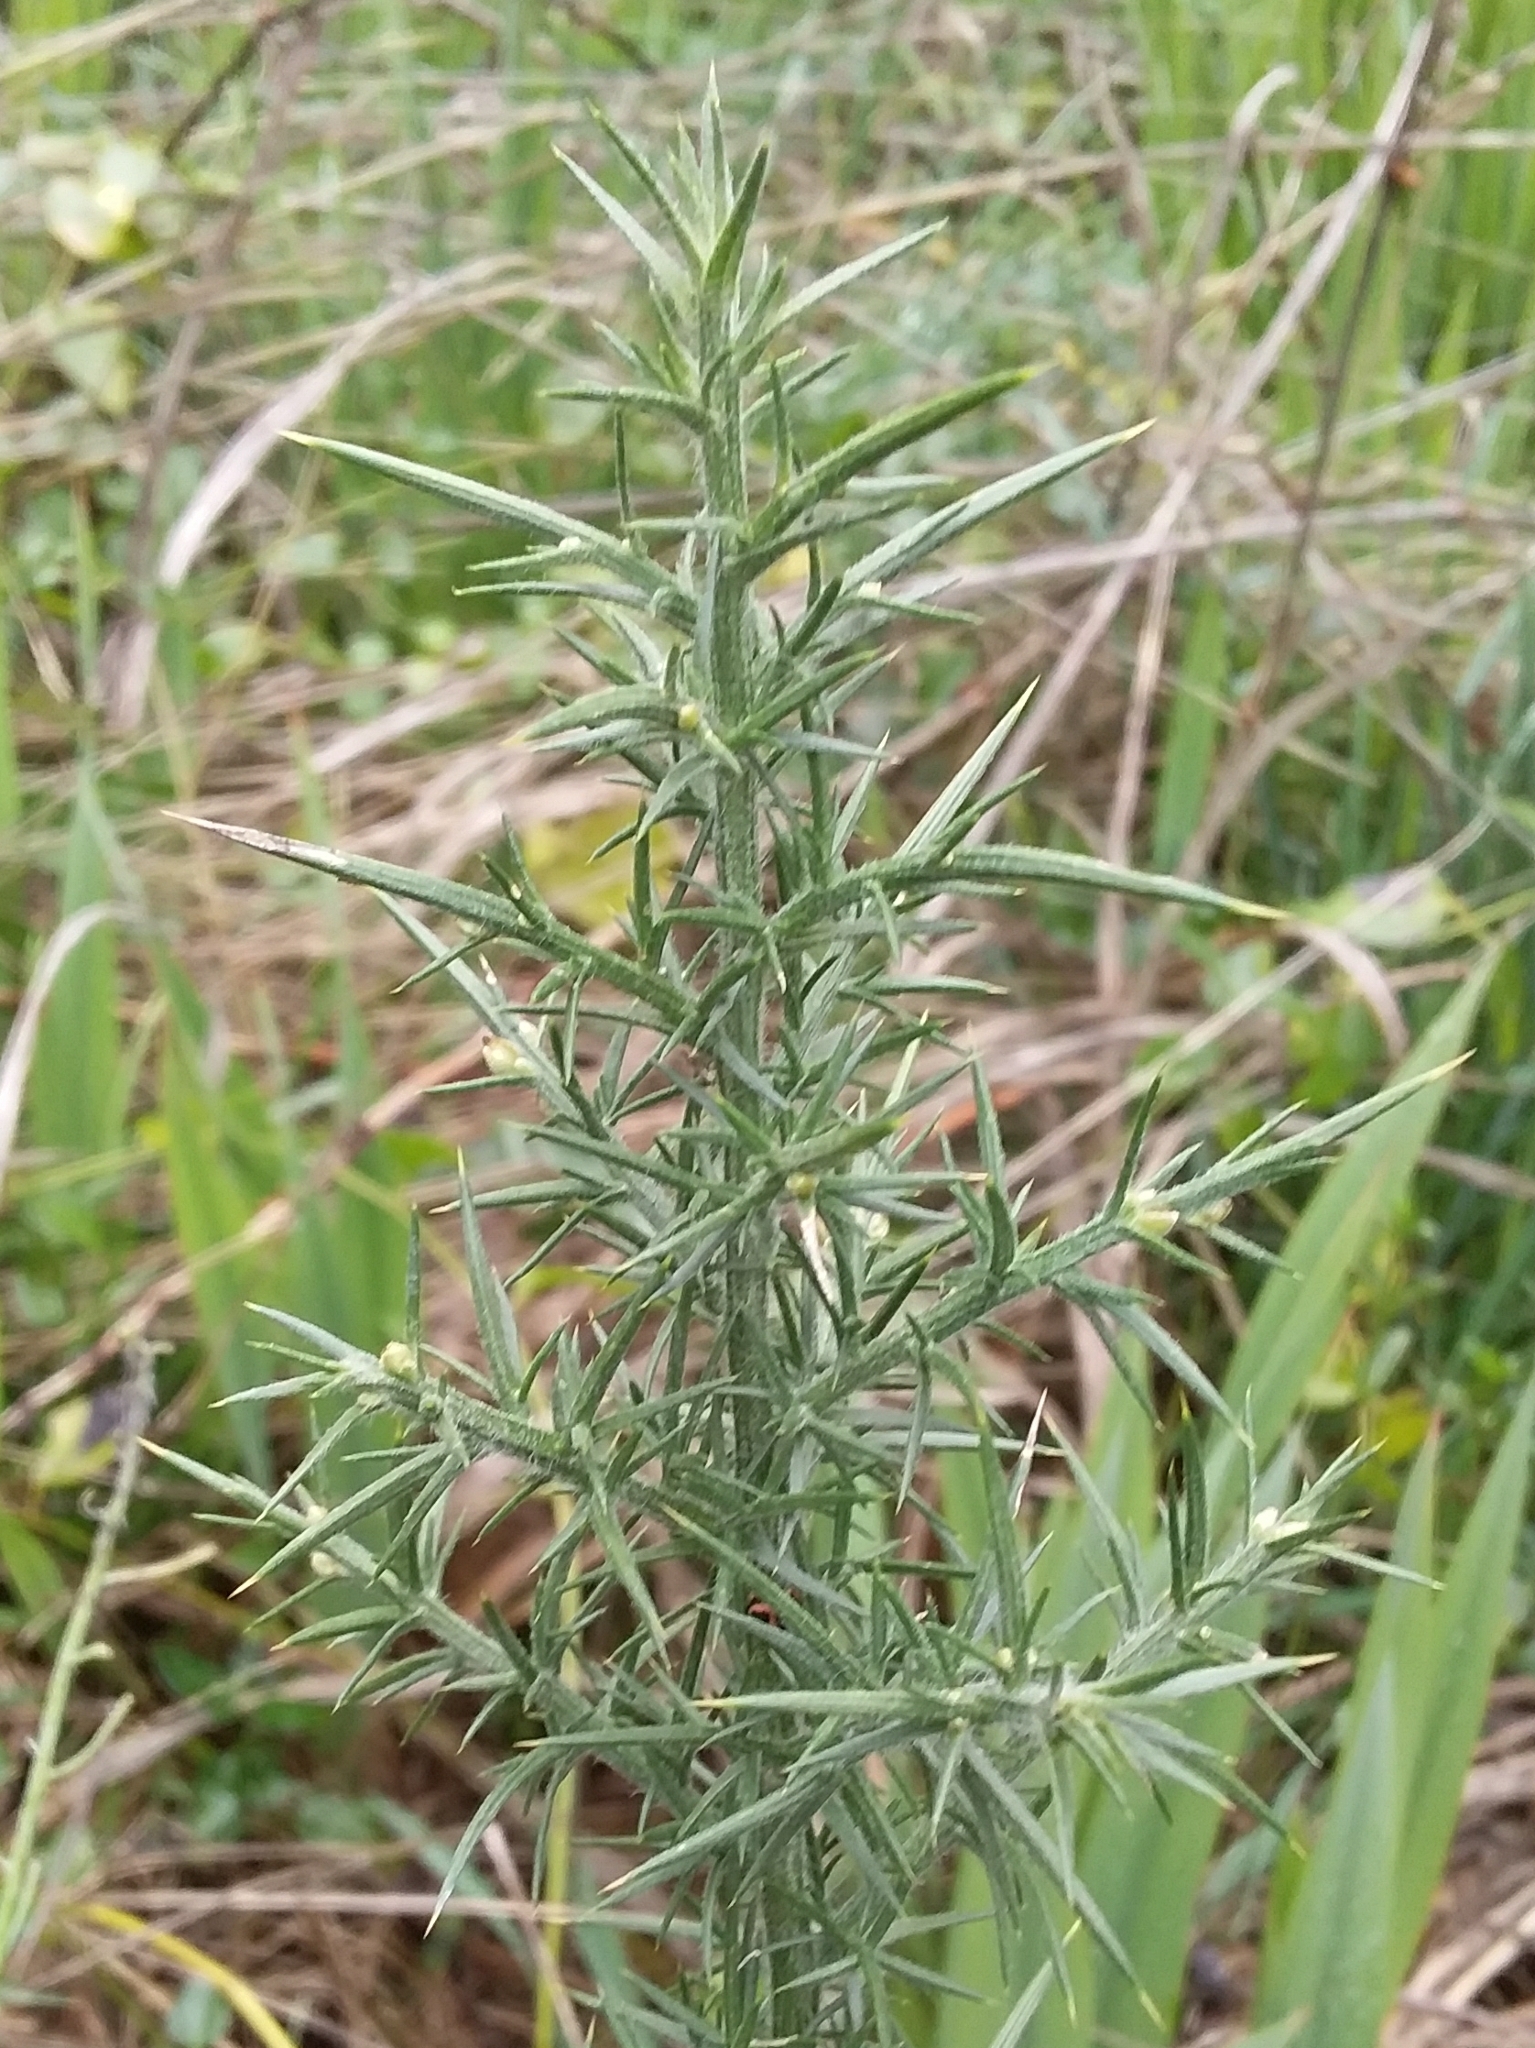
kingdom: Plantae
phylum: Tracheophyta
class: Magnoliopsida
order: Fabales
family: Fabaceae
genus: Ulex
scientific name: Ulex europaeus
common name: Common gorse
